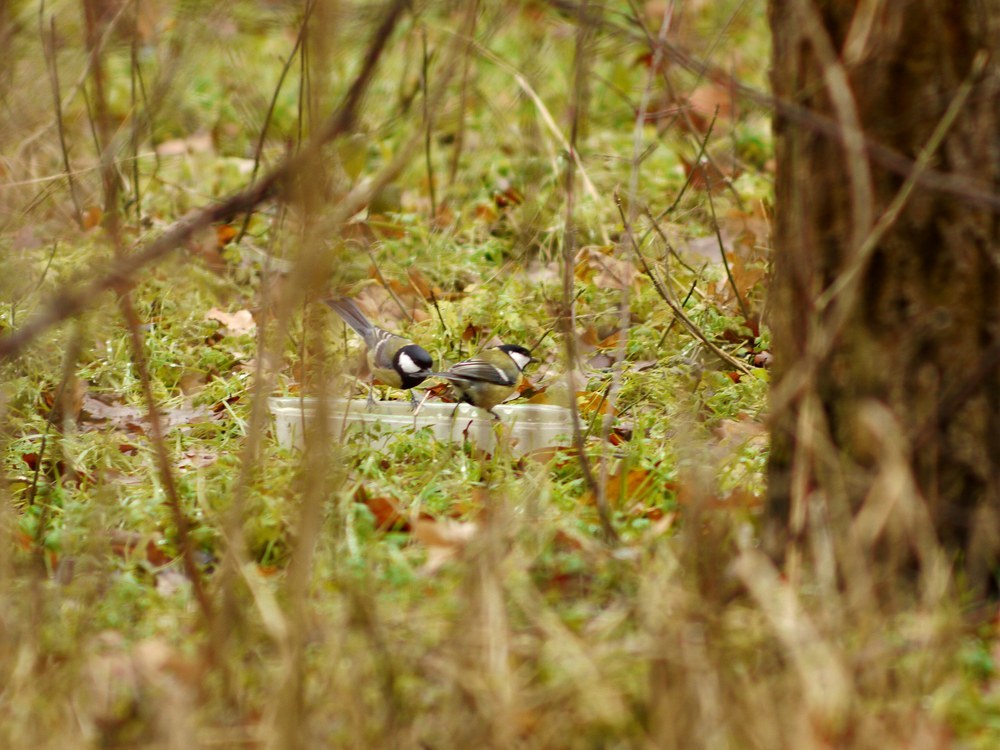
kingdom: Animalia
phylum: Chordata
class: Aves
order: Passeriformes
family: Paridae
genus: Parus
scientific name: Parus major
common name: Great tit
